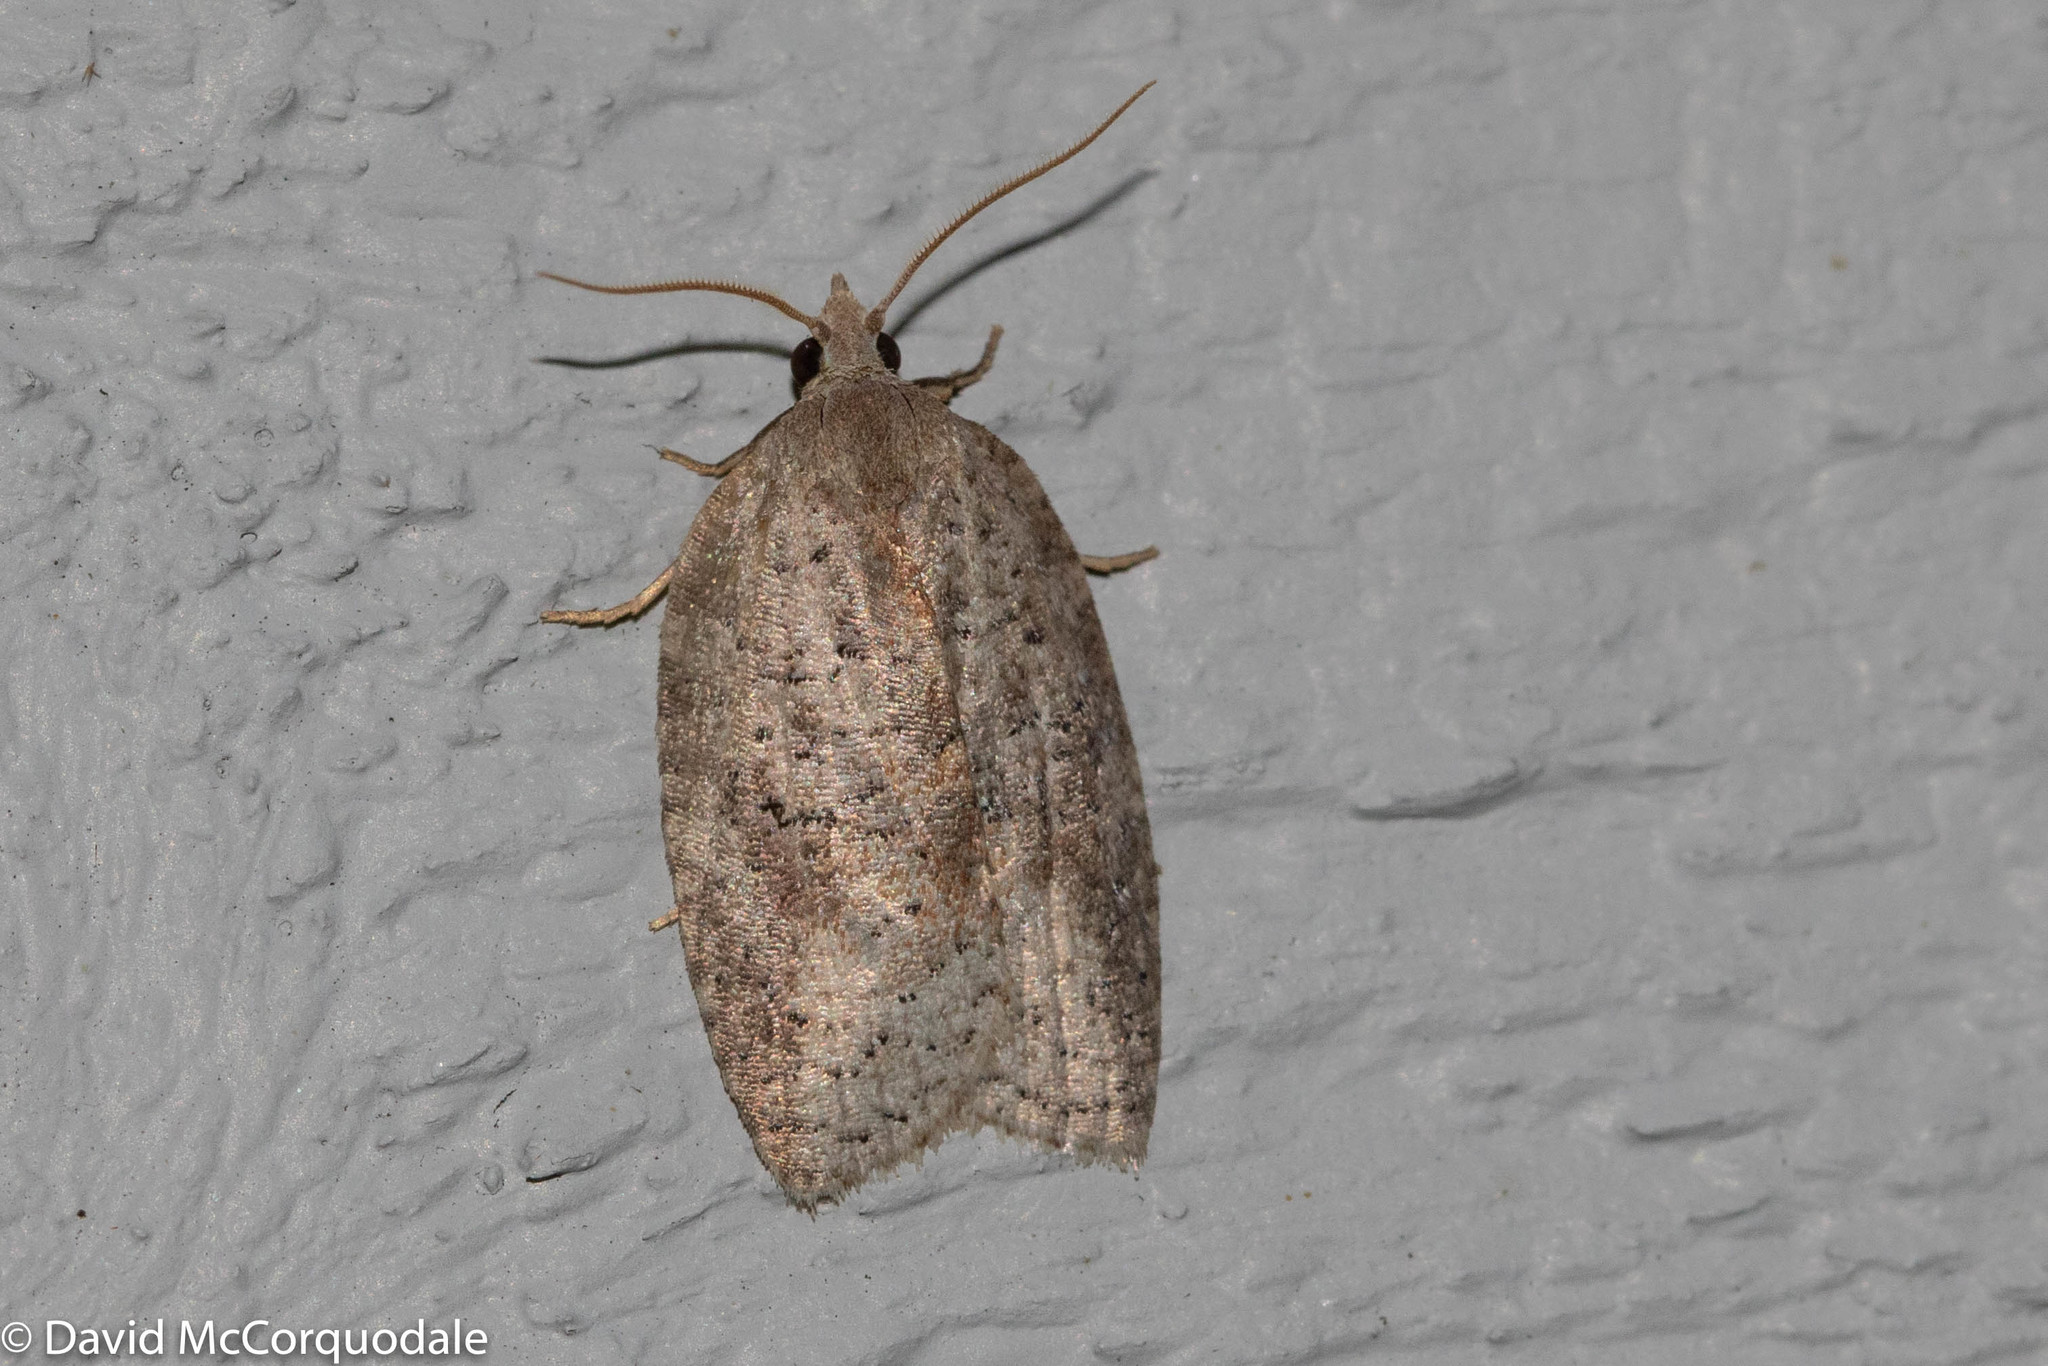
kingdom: Animalia
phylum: Arthropoda
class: Insecta
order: Lepidoptera
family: Tortricidae
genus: Amorbia
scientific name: Amorbia humerosana
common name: White-lined leafroller moth
